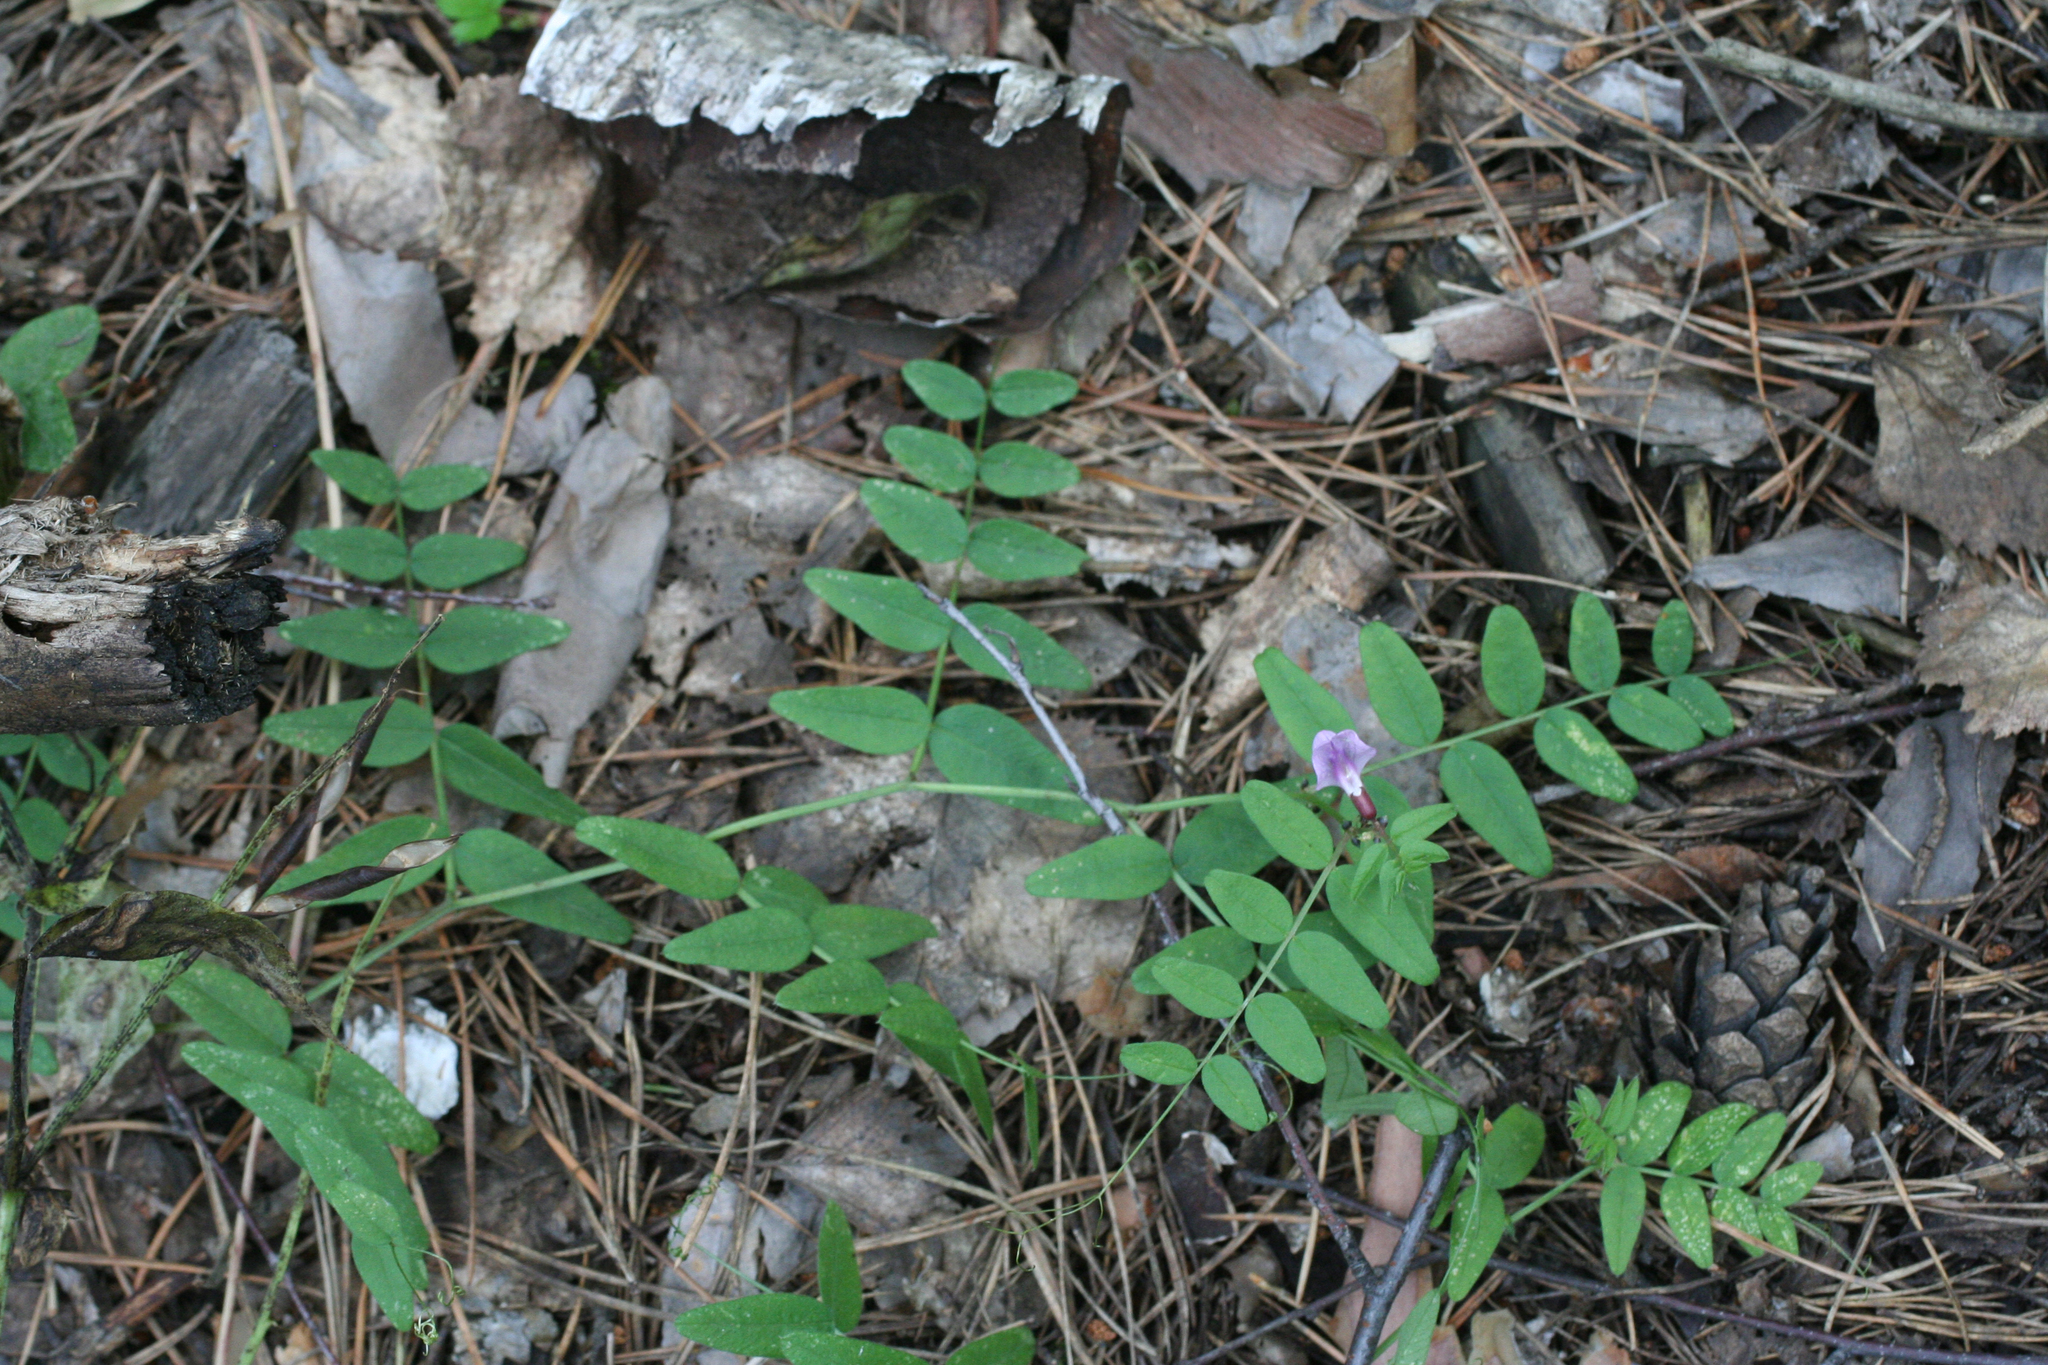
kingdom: Plantae
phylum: Tracheophyta
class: Magnoliopsida
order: Fabales
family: Fabaceae
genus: Vicia
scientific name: Vicia sepium
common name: Bush vetch
